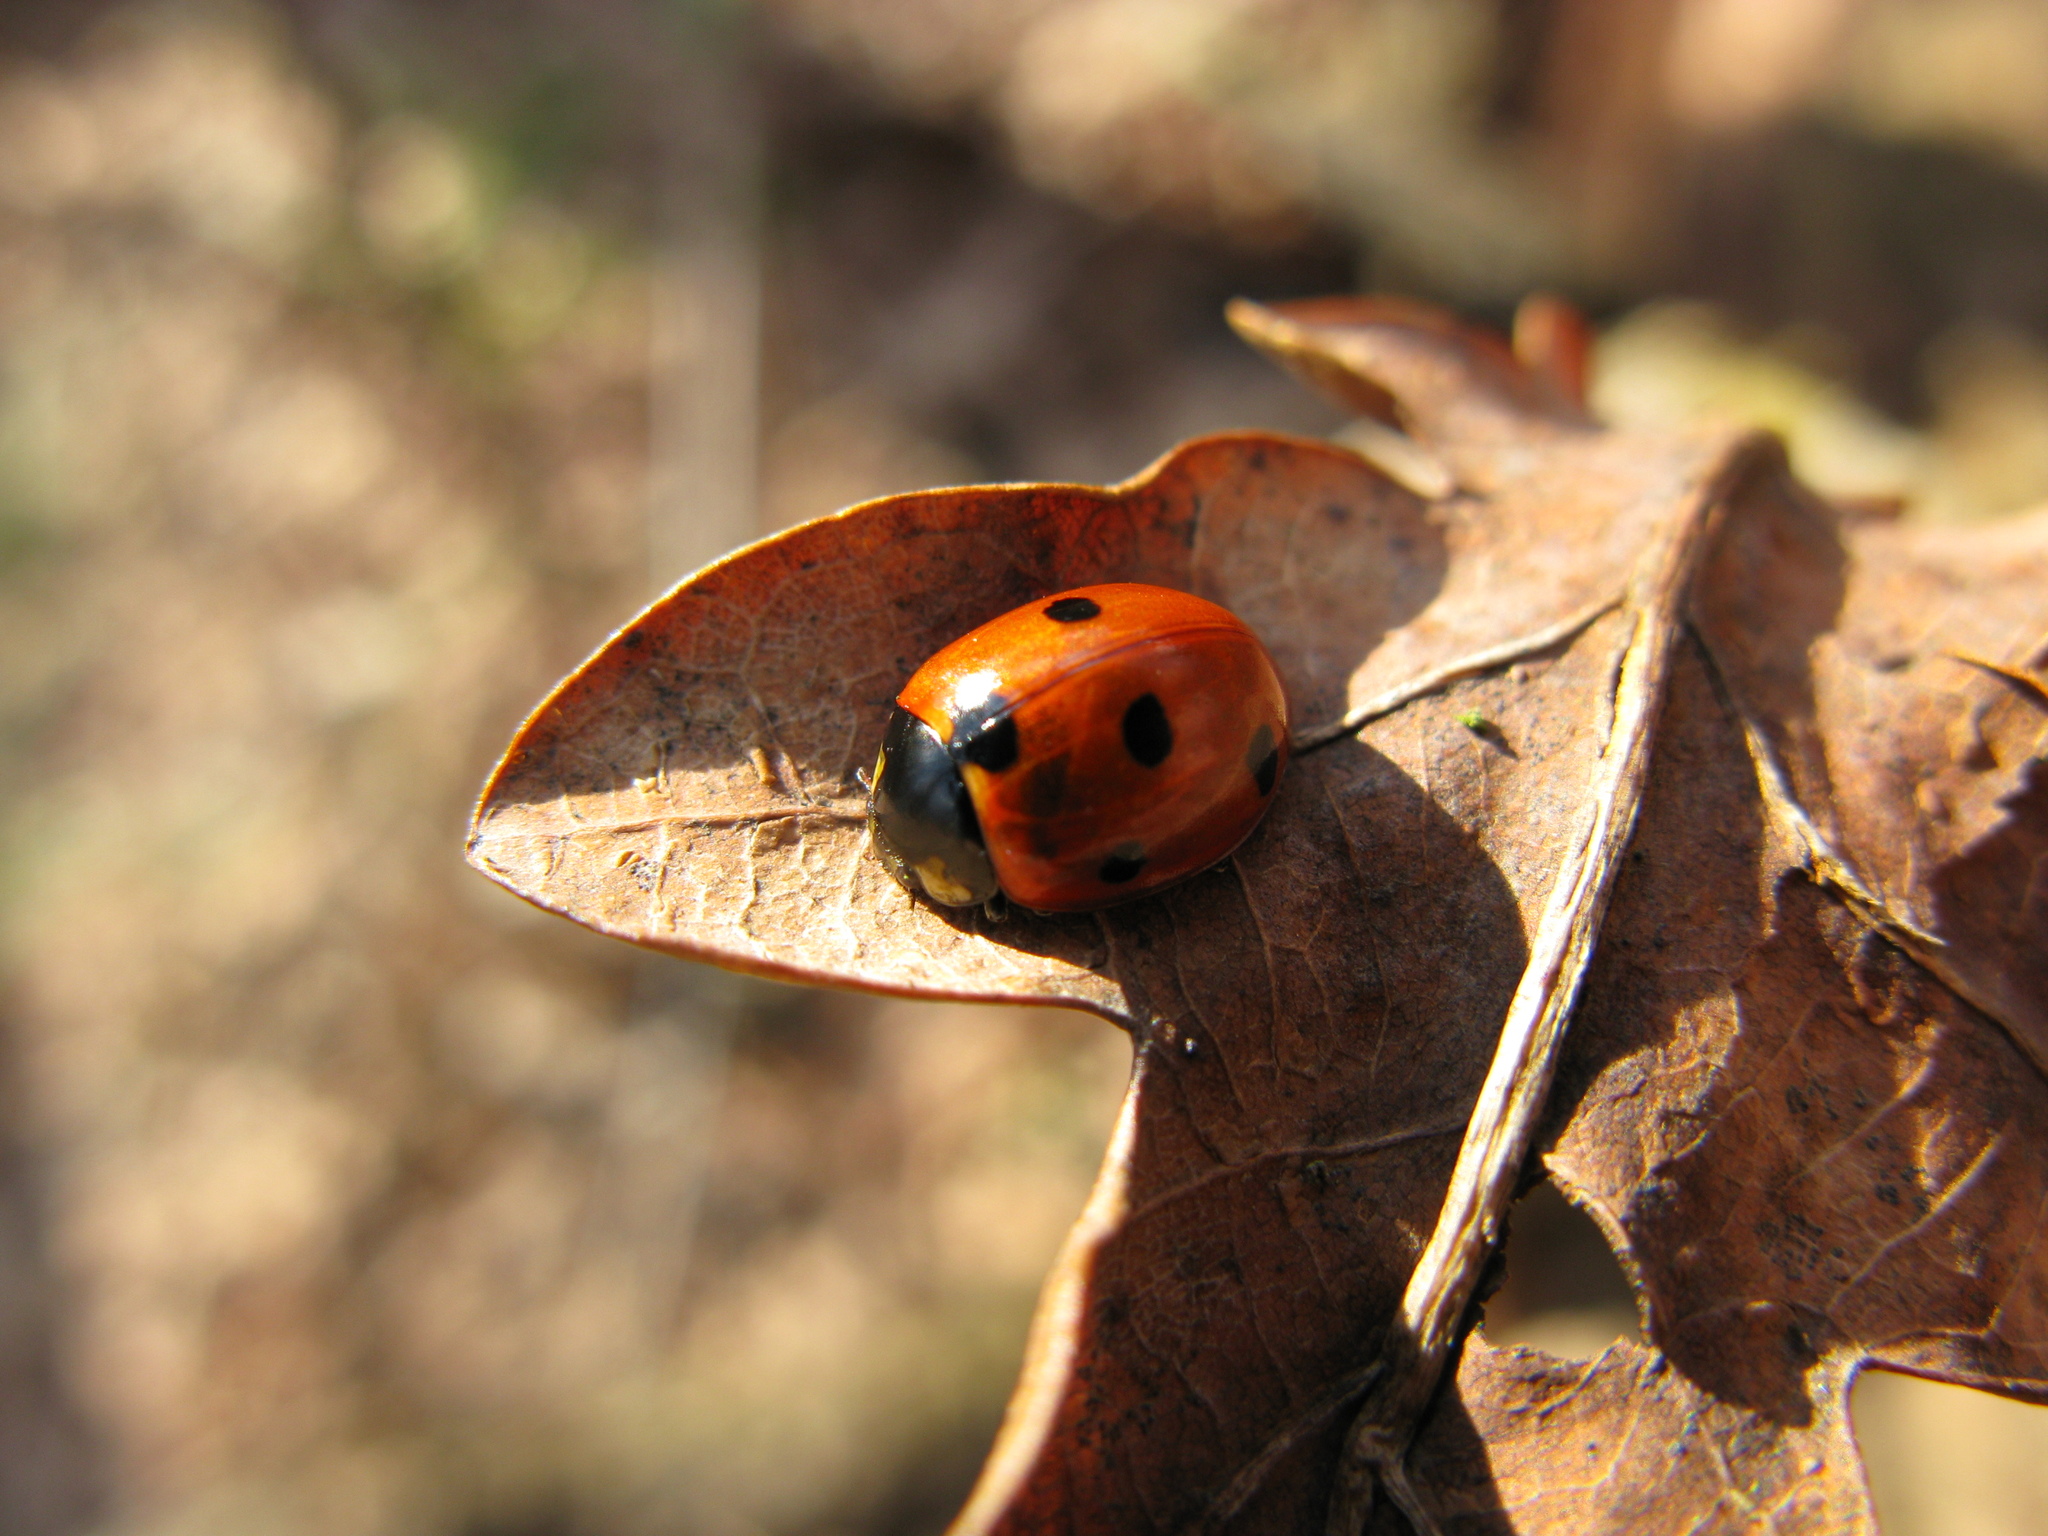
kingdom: Animalia
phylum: Arthropoda
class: Insecta
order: Coleoptera
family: Coccinellidae
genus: Coccinella
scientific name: Coccinella septempunctata
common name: Sevenspotted lady beetle
